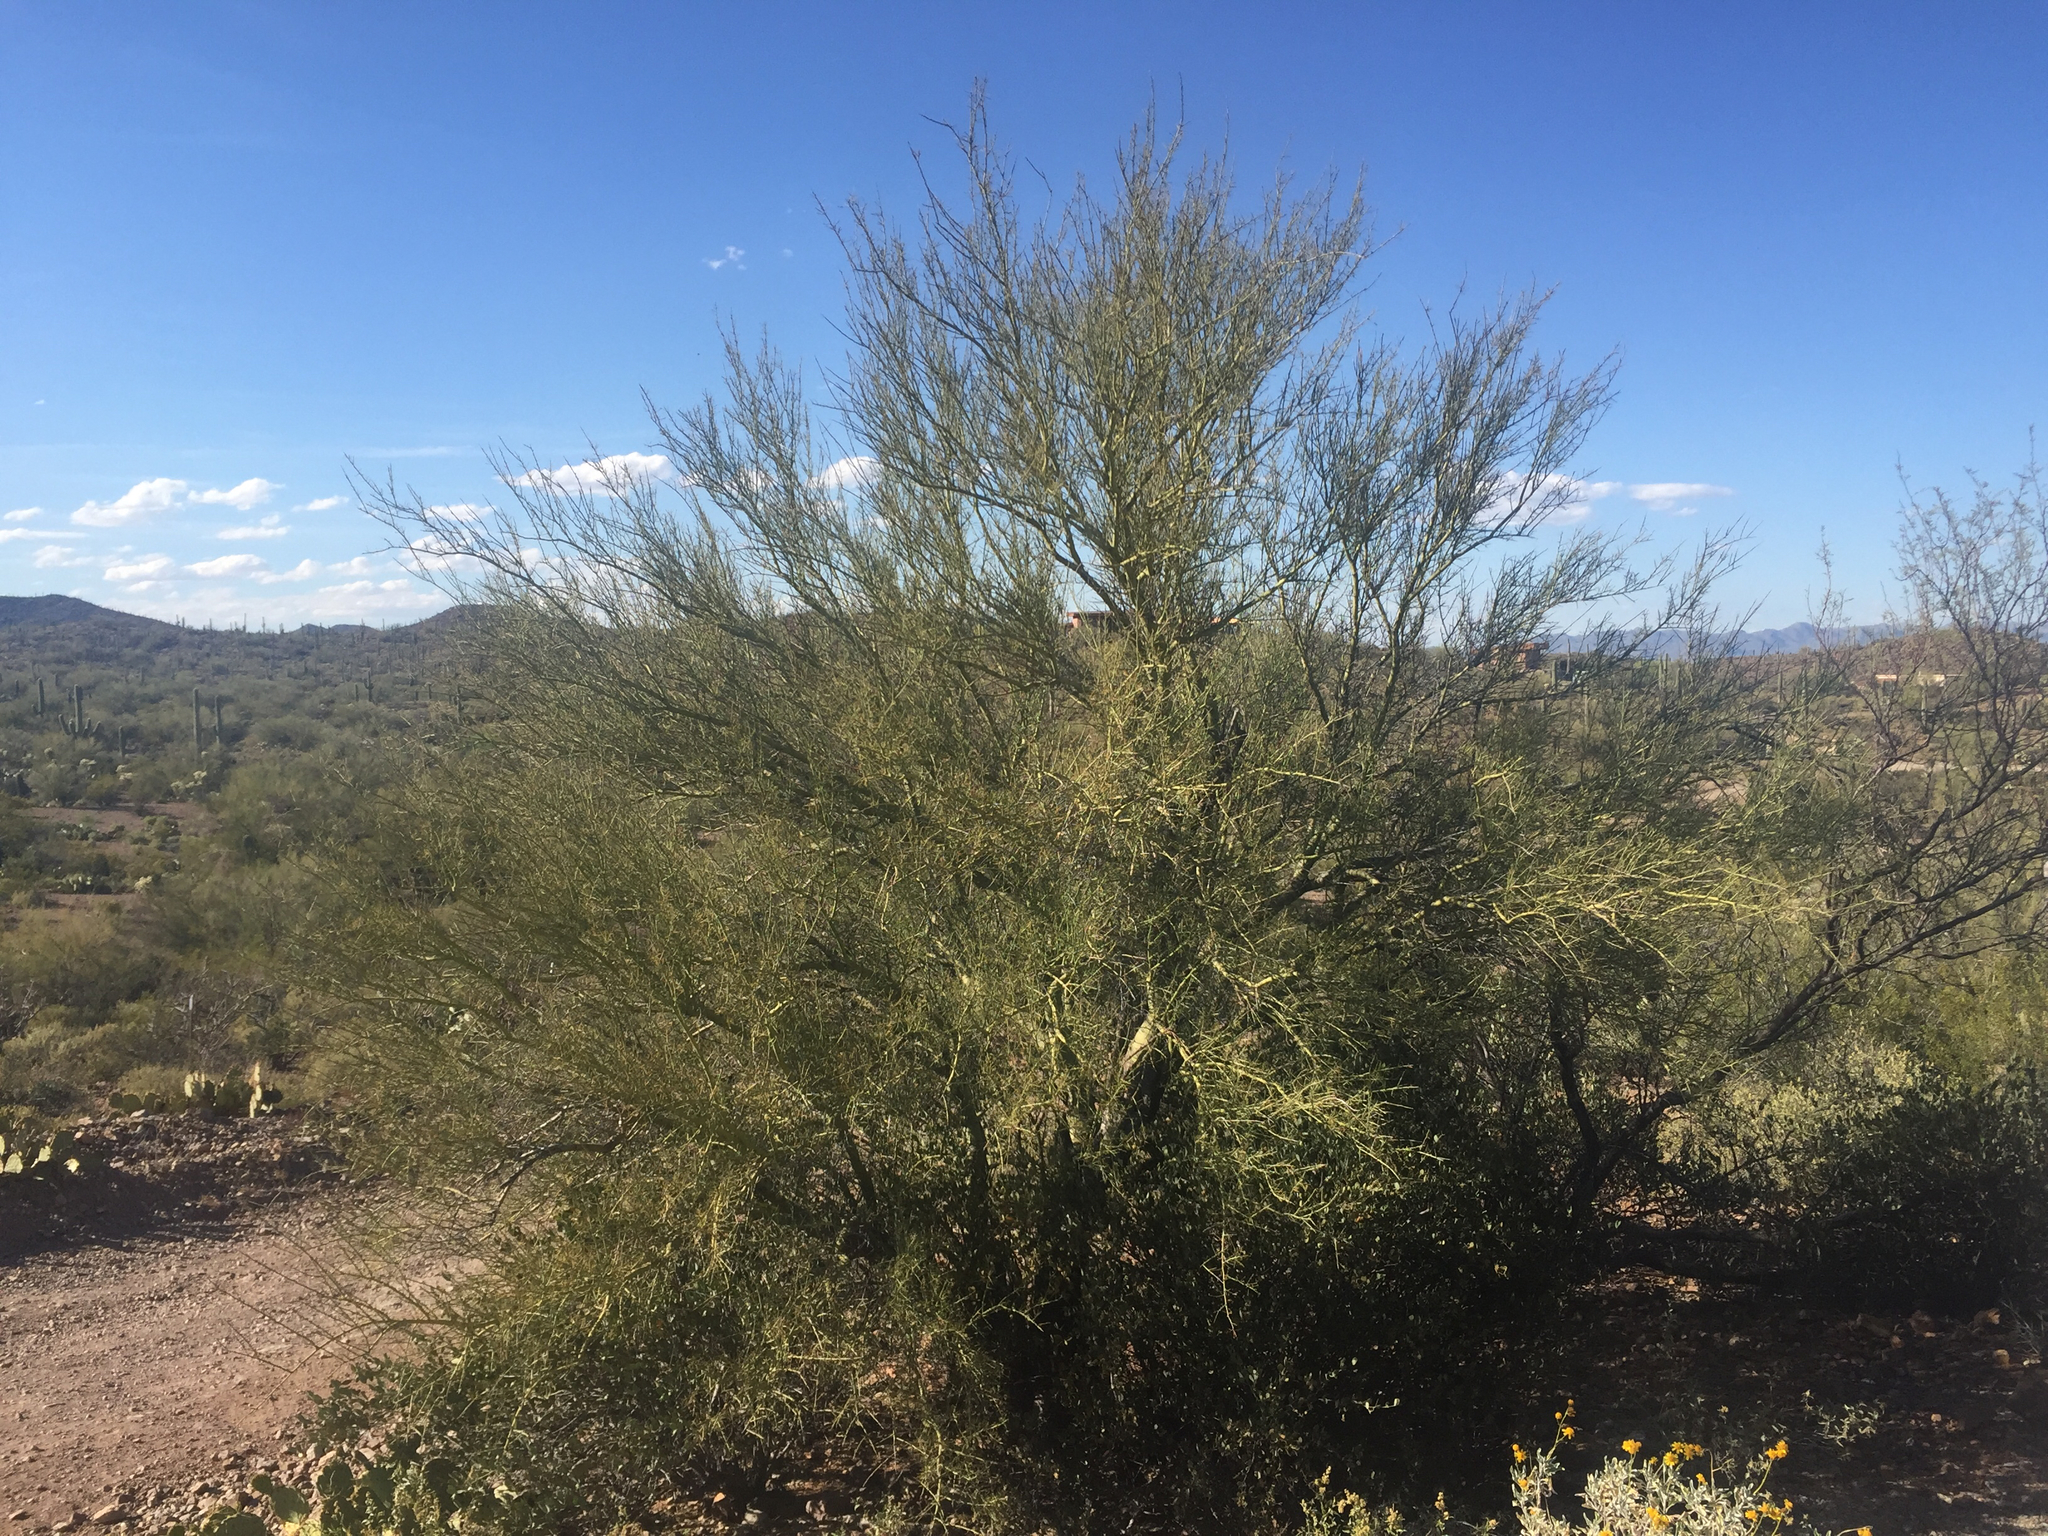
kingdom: Plantae
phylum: Tracheophyta
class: Magnoliopsida
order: Fabales
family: Fabaceae
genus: Parkinsonia
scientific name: Parkinsonia microphylla
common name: Yellow paloverde
